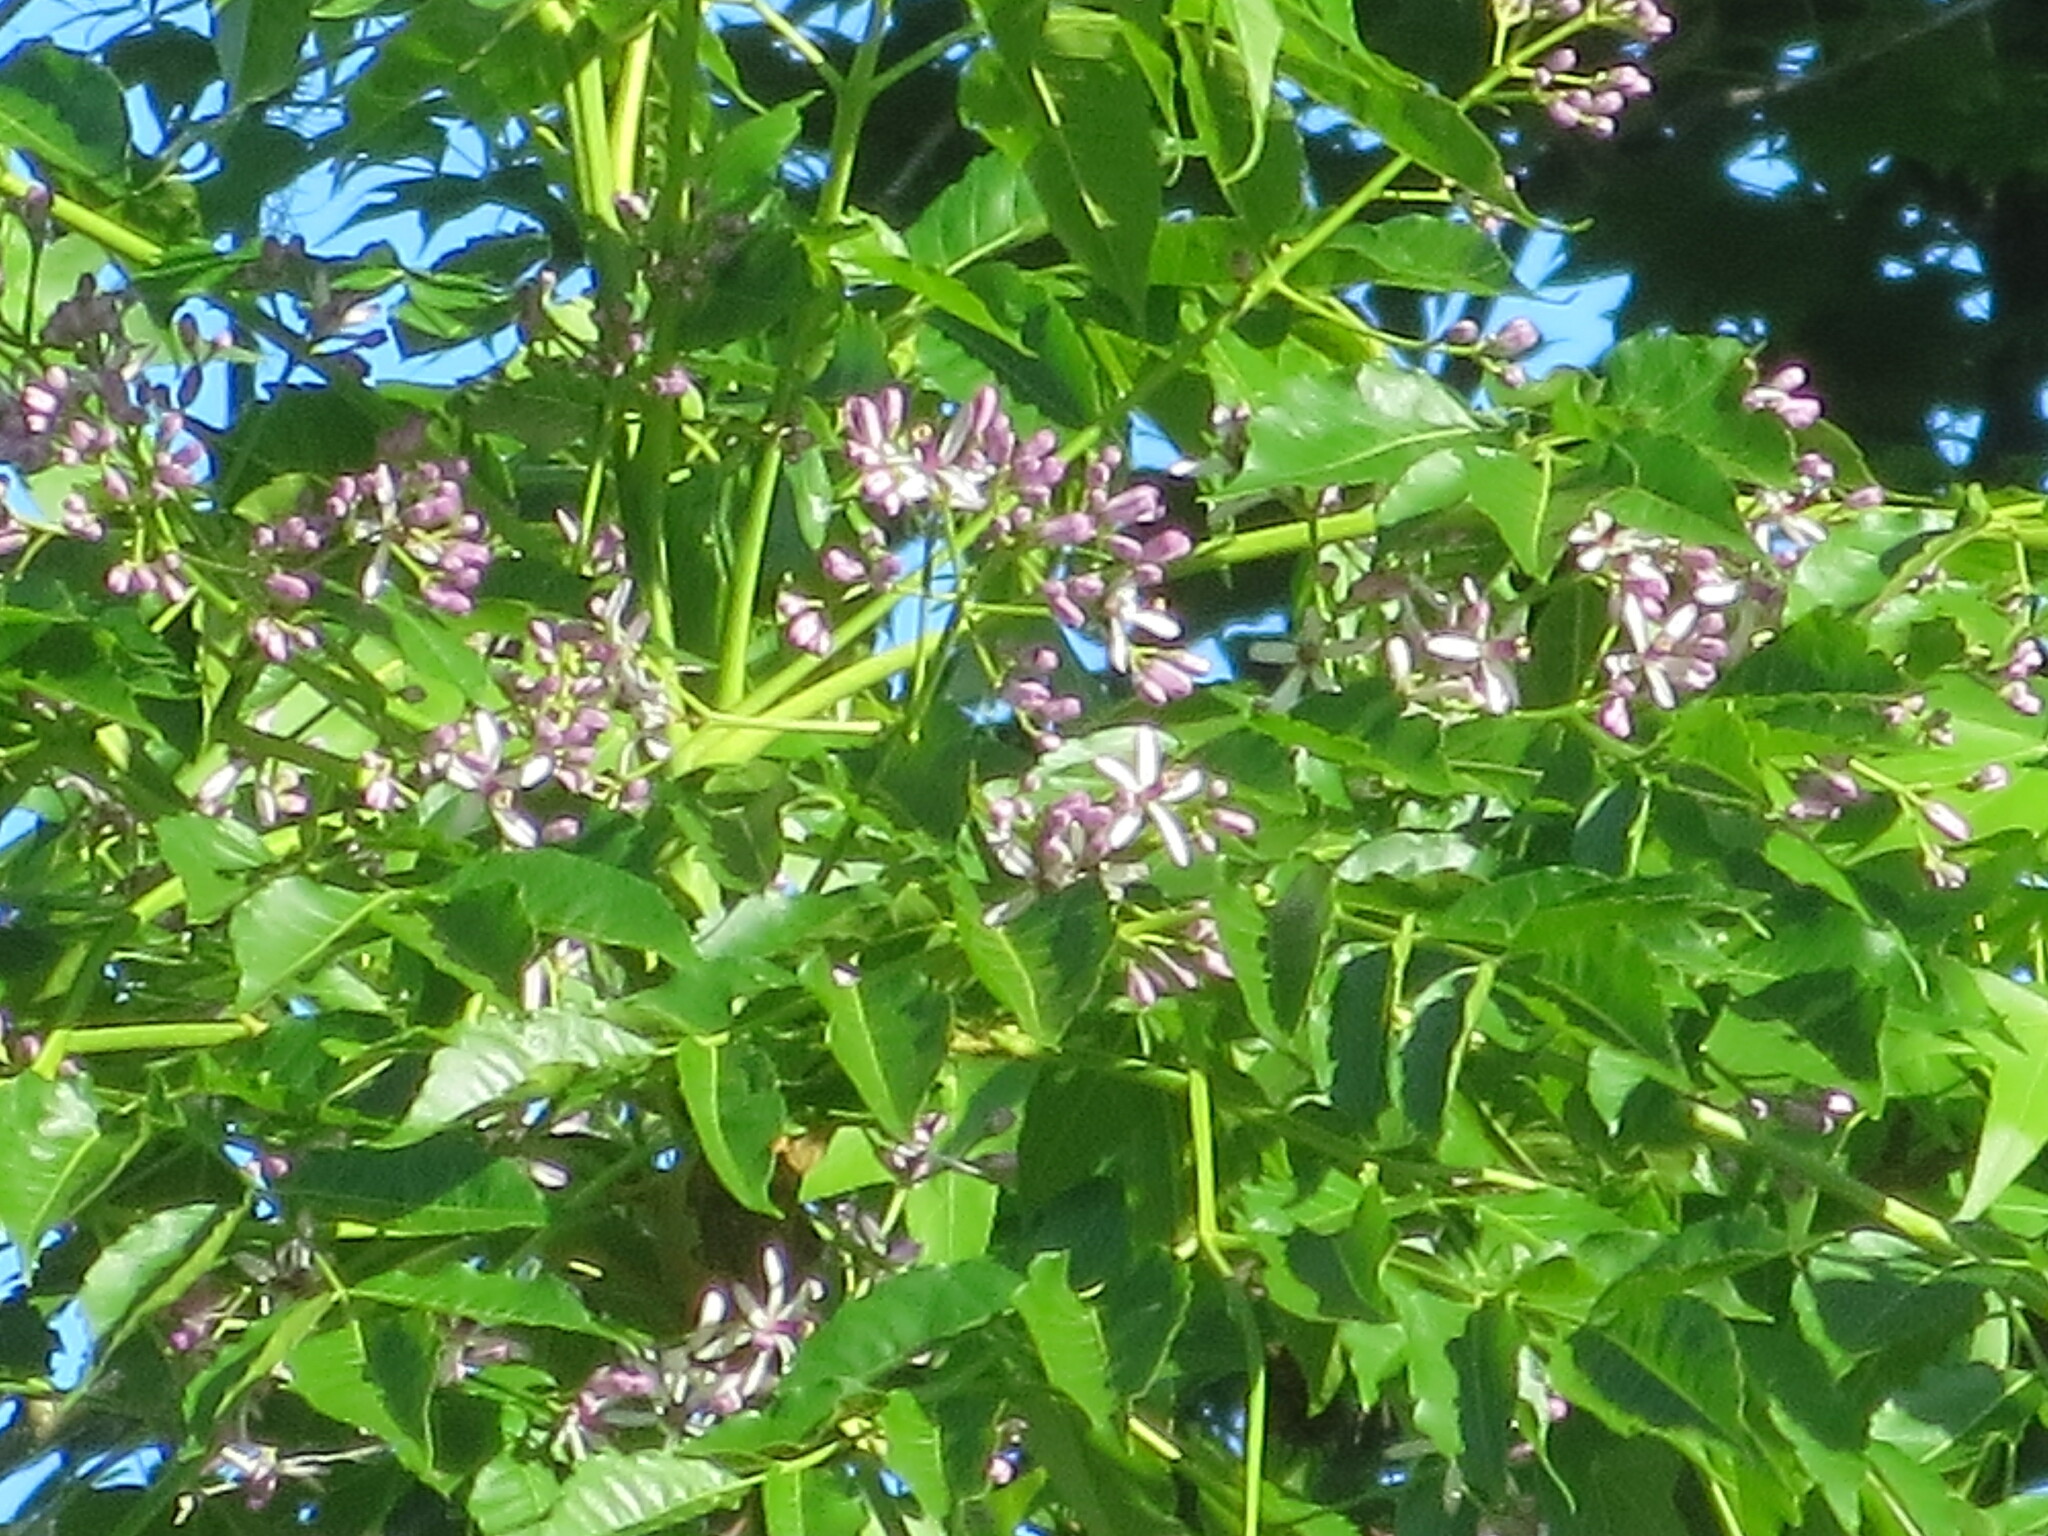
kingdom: Plantae
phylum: Tracheophyta
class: Magnoliopsida
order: Sapindales
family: Meliaceae
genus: Melia
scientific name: Melia azedarach
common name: Chinaberrytree
